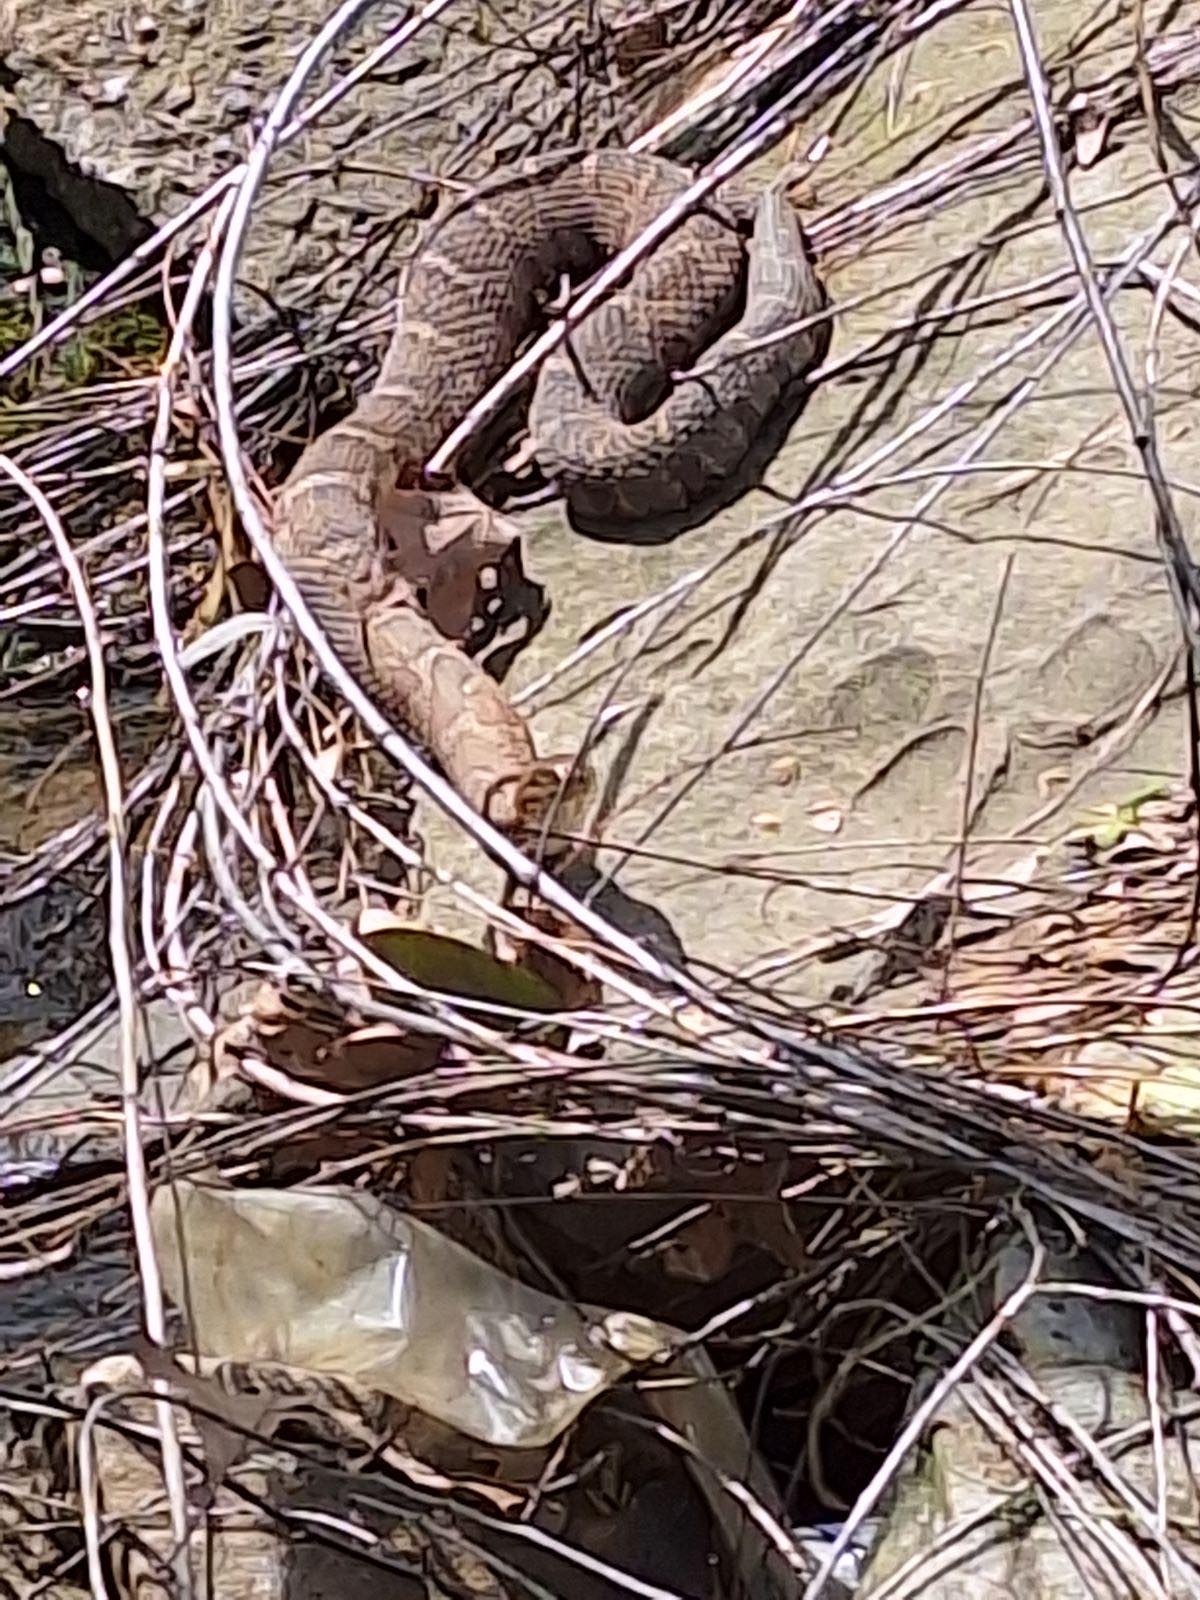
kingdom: Animalia
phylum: Chordata
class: Squamata
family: Colubridae
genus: Nerodia
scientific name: Nerodia sipedon
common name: Northern water snake
